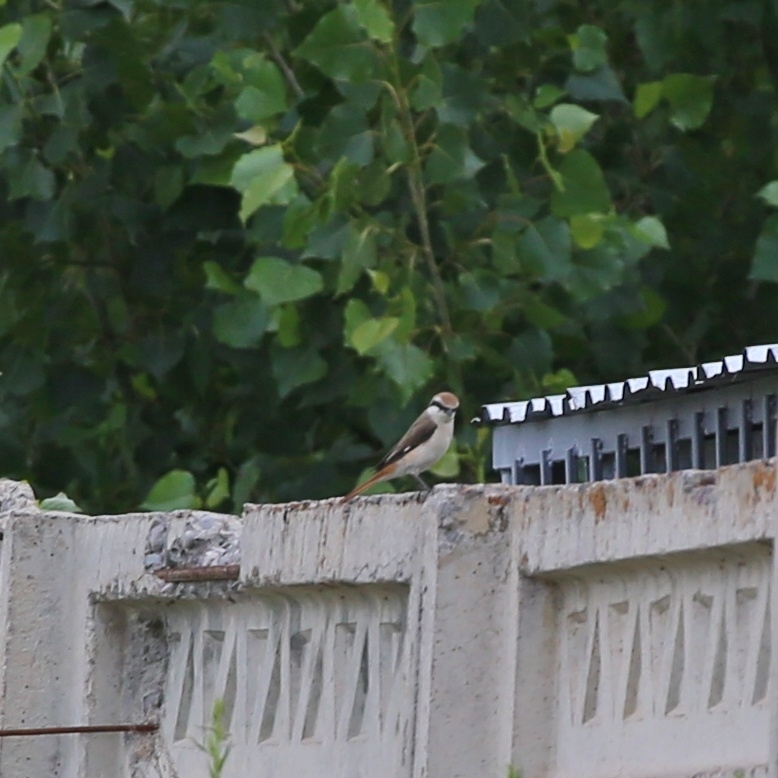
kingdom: Animalia
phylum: Chordata
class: Aves
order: Passeriformes
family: Laniidae
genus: Lanius
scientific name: Lanius phoenicuroides
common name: Red-tailed shrike
